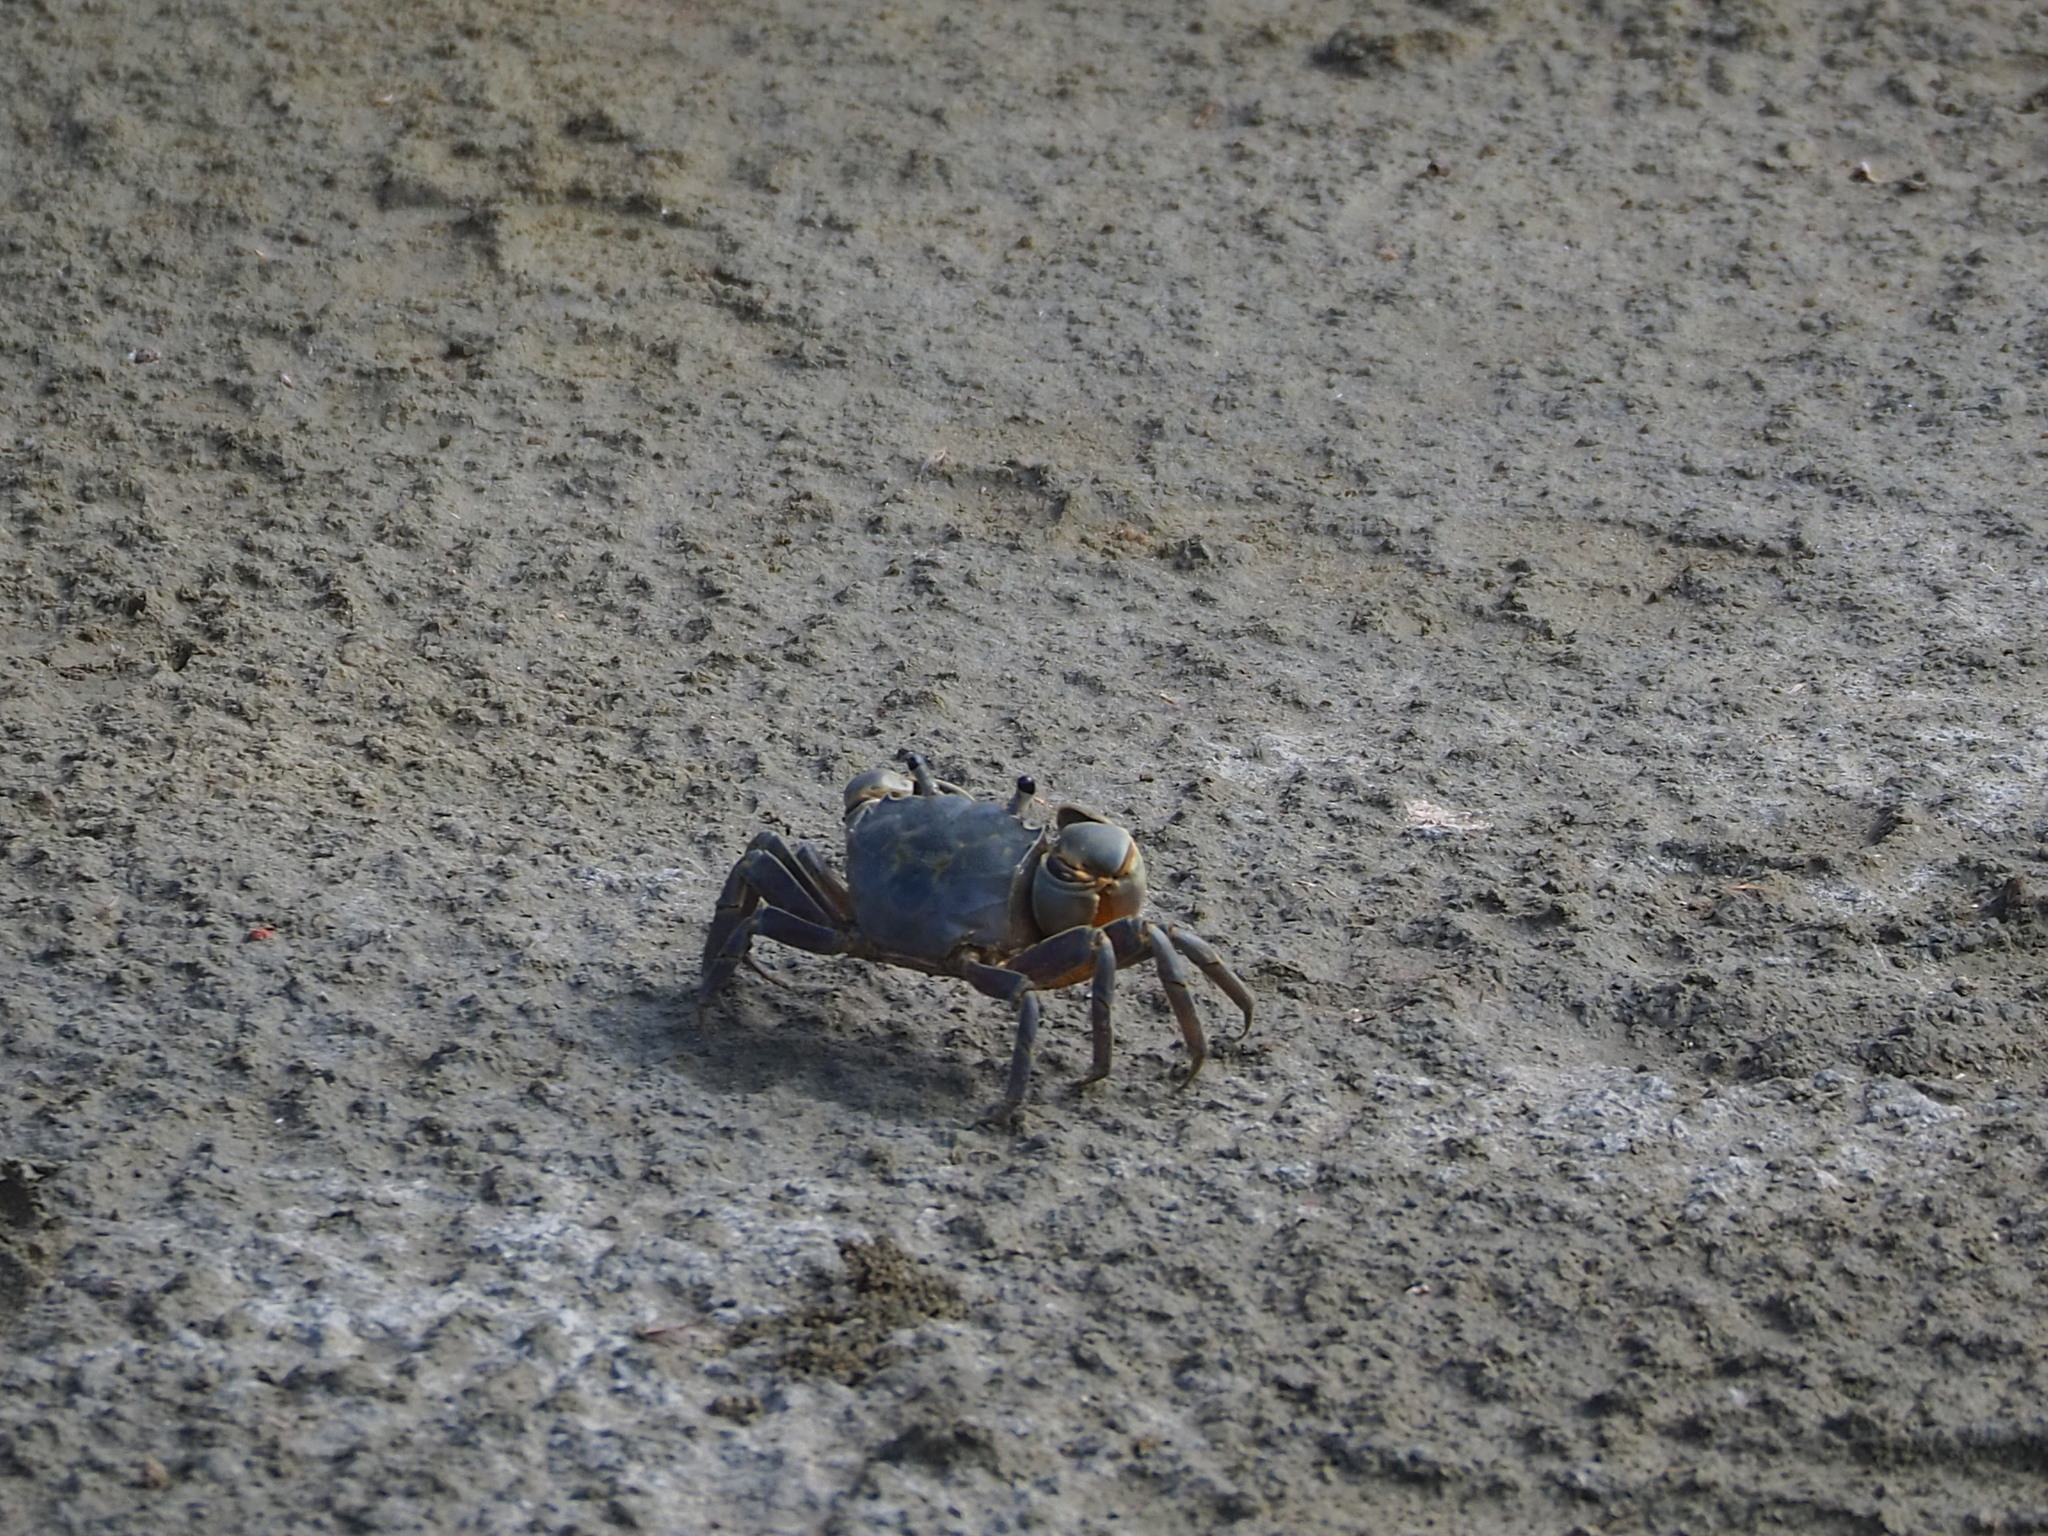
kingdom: Animalia
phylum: Arthropoda
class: Malacostraca
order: Decapoda
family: Varunidae
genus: Helice
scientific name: Helice formosensis
